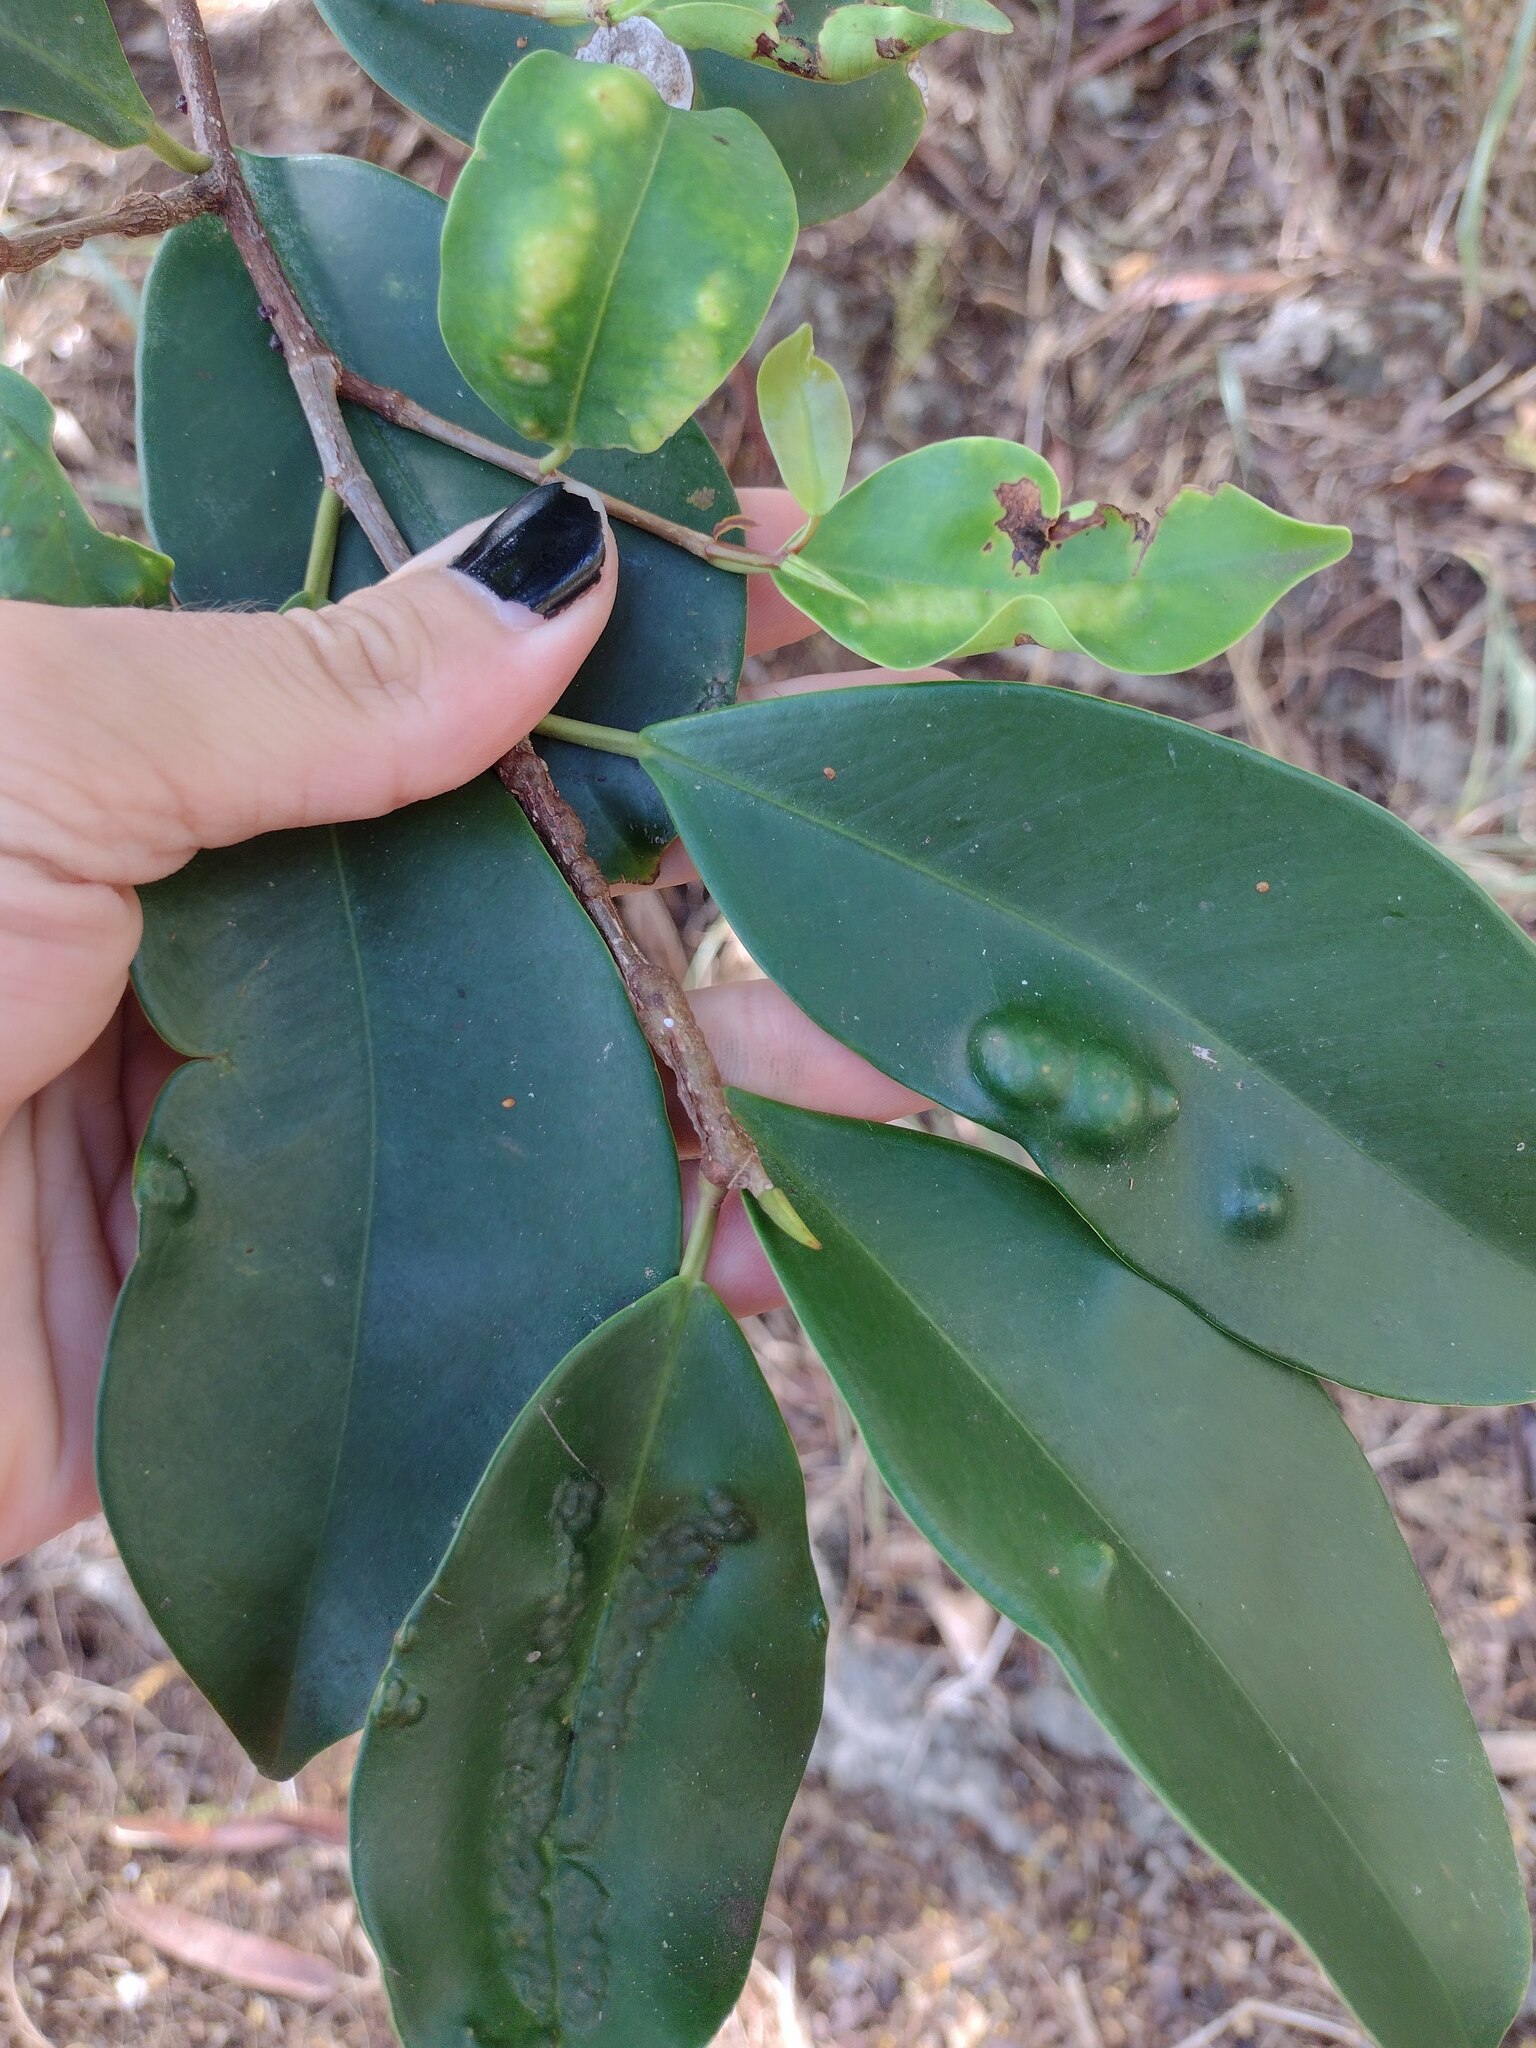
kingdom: Animalia
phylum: Arthropoda
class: Insecta
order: Hymenoptera
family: Agaonidae
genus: Josephiella
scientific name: Josephiella
